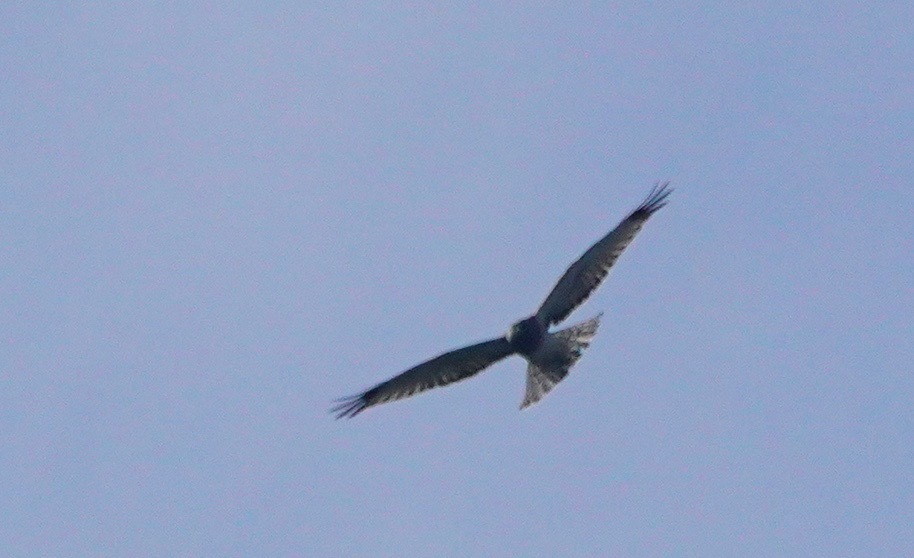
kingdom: Animalia
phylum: Chordata
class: Aves
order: Accipitriformes
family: Accipitridae
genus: Circus
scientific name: Circus cyaneus
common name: Hen harrier
